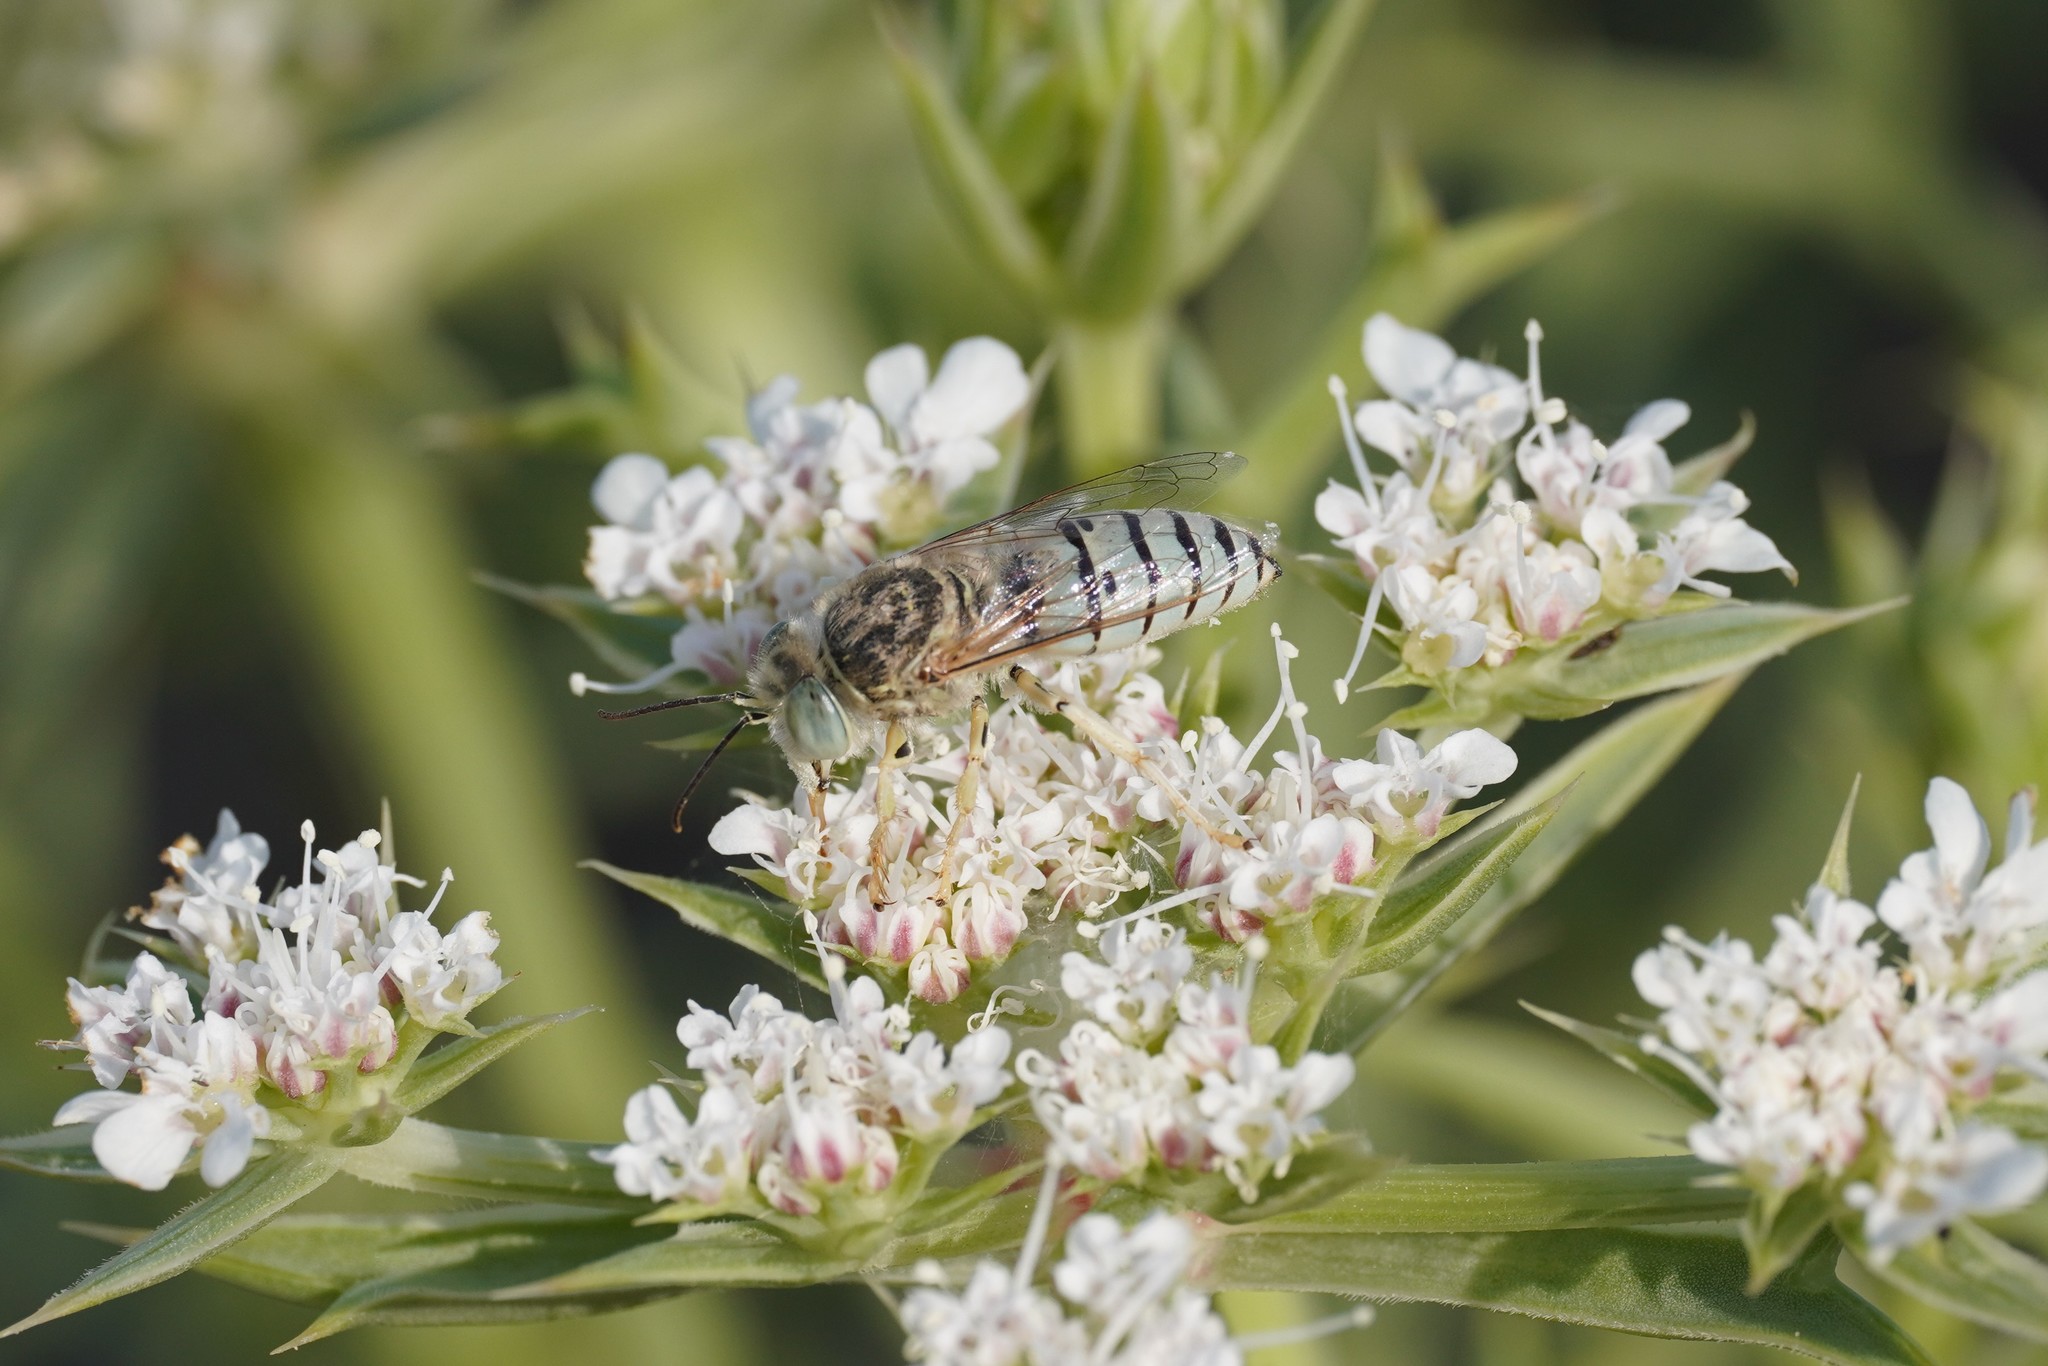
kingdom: Animalia
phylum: Arthropoda
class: Insecta
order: Hymenoptera
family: Crabronidae
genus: Bembix
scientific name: Bembix olivacea
